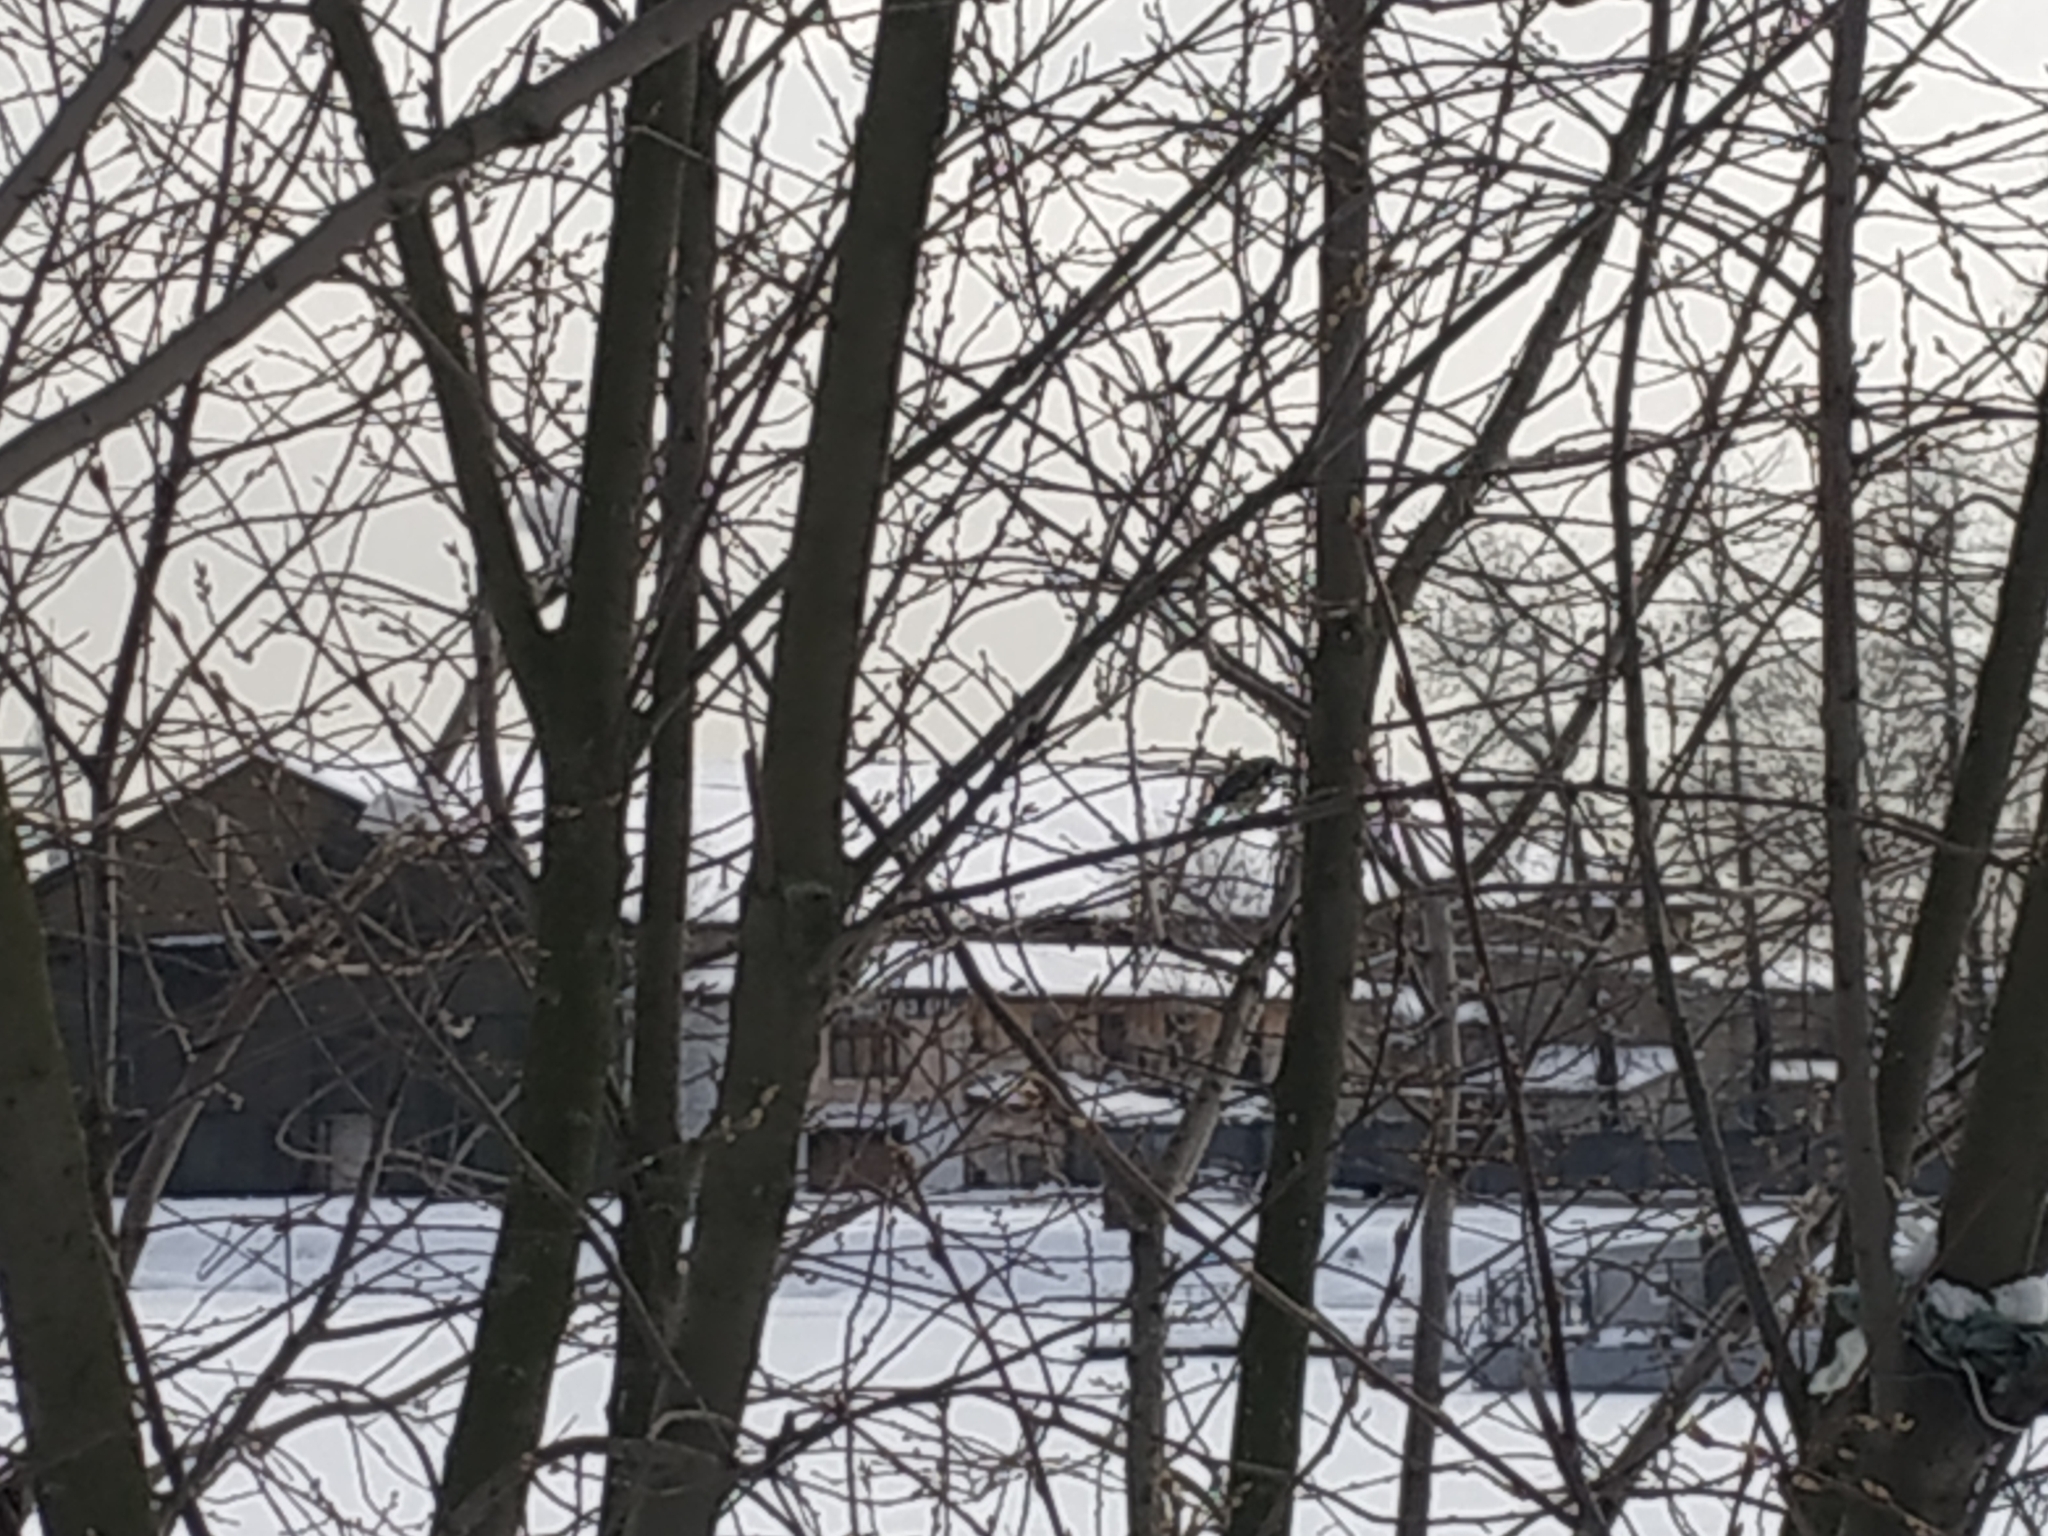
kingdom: Animalia
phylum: Chordata
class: Aves
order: Passeriformes
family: Paridae
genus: Cyanistes
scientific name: Cyanistes caeruleus
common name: Eurasian blue tit
